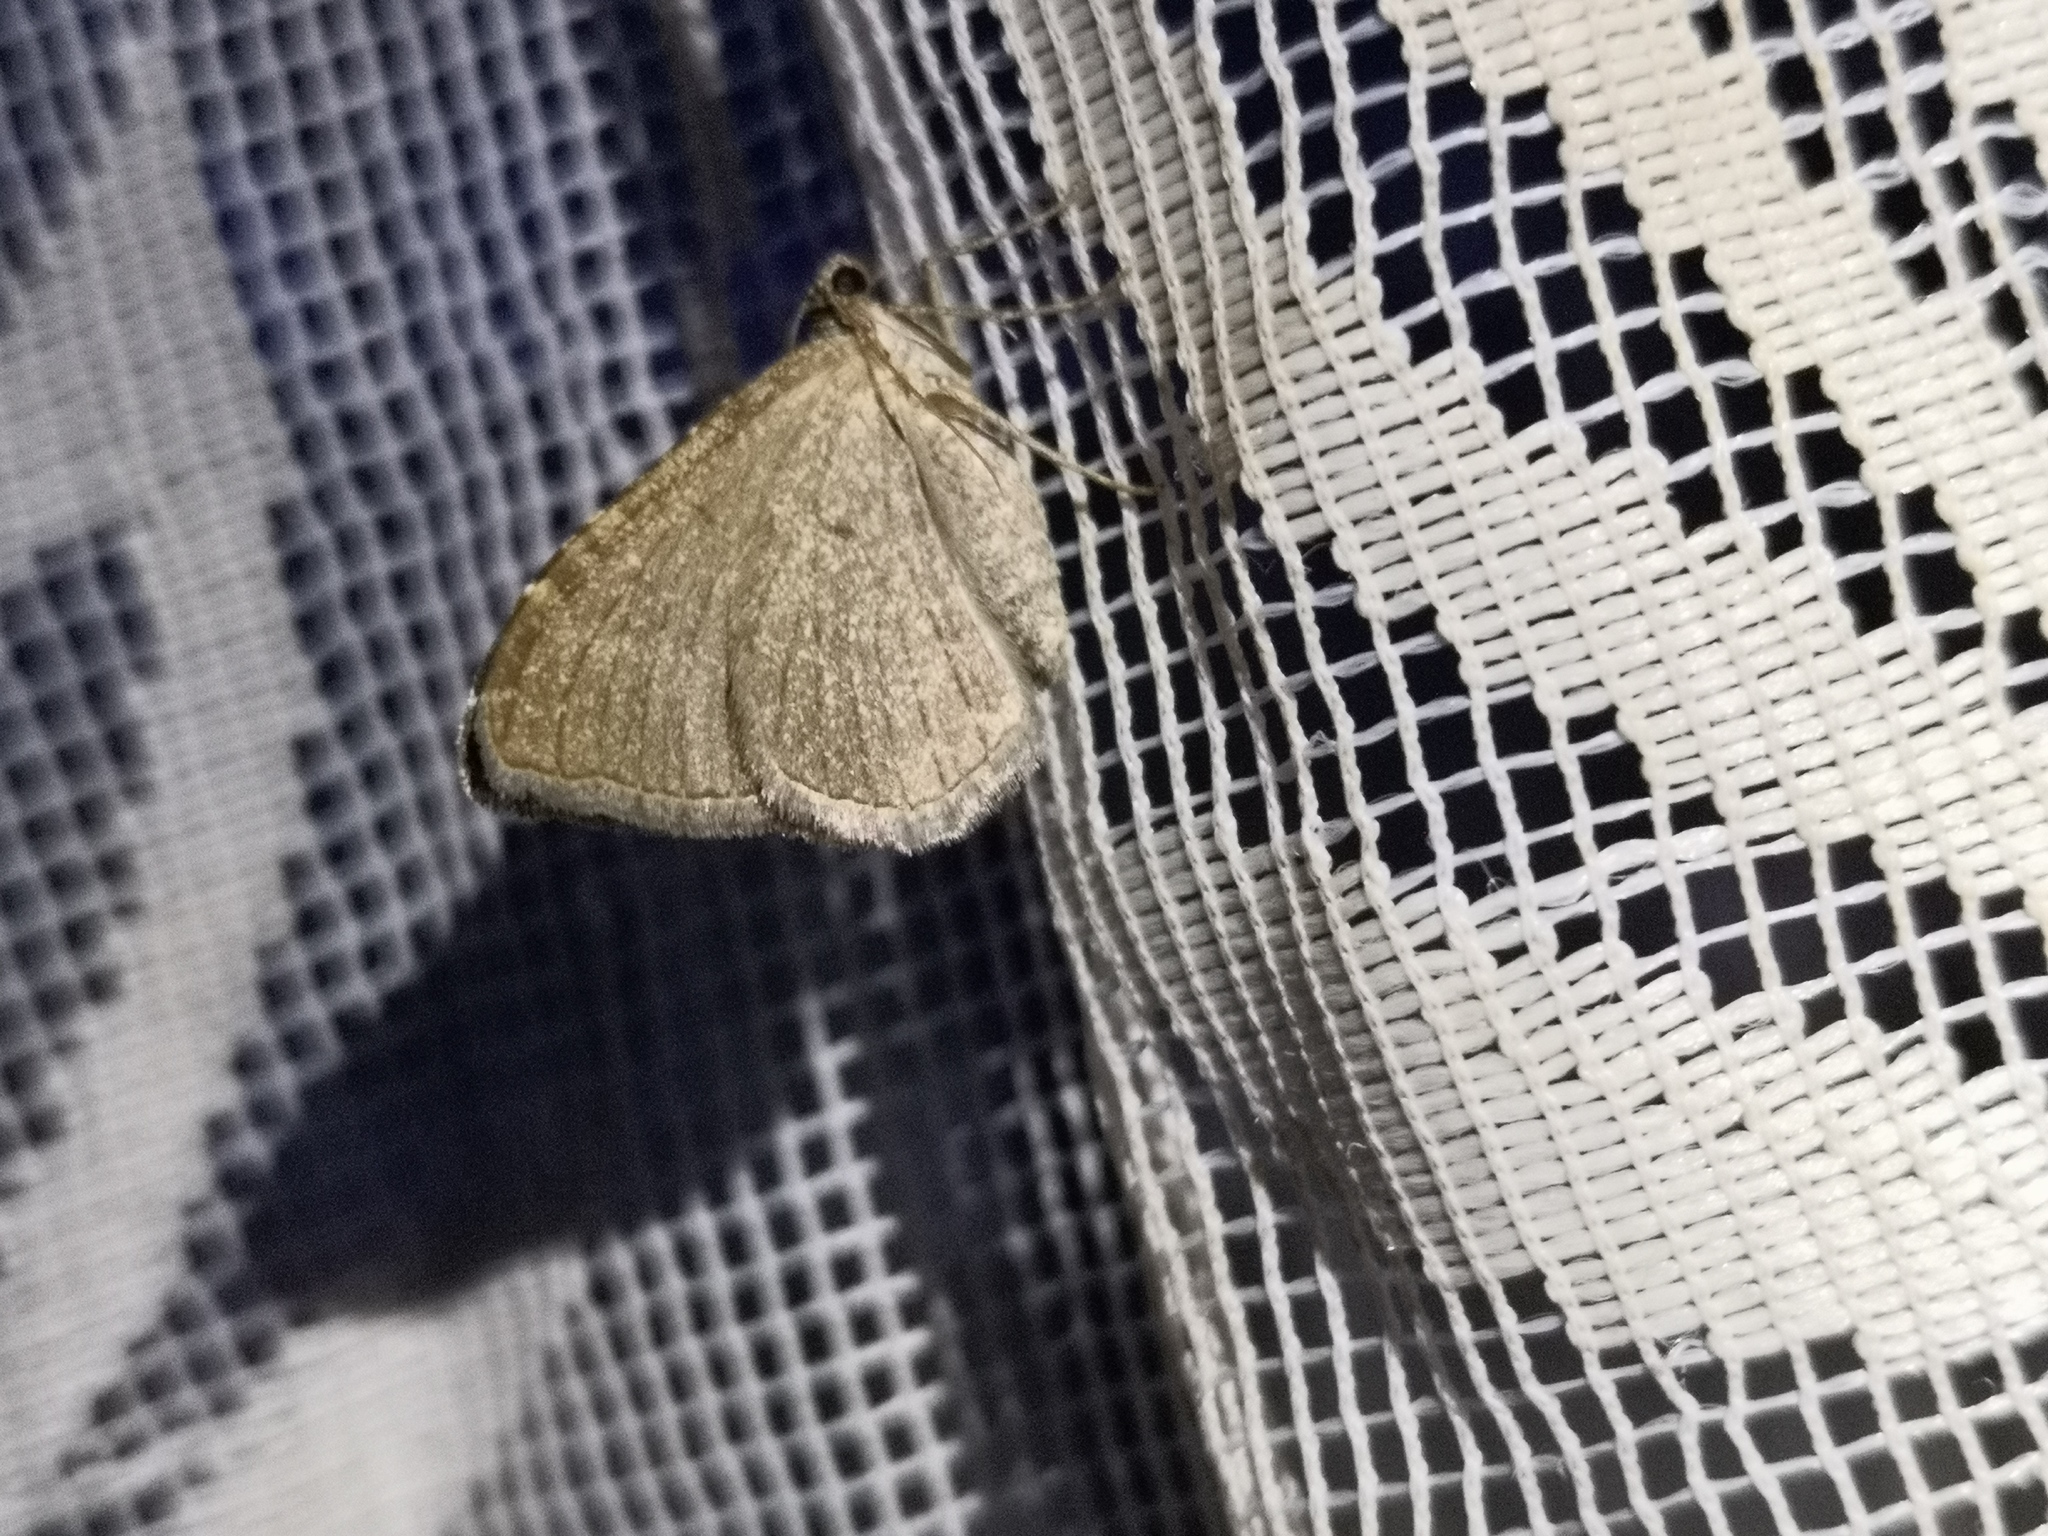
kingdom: Animalia
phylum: Arthropoda
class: Insecta
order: Lepidoptera
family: Geometridae
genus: Cataclysme
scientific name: Cataclysme riguata
